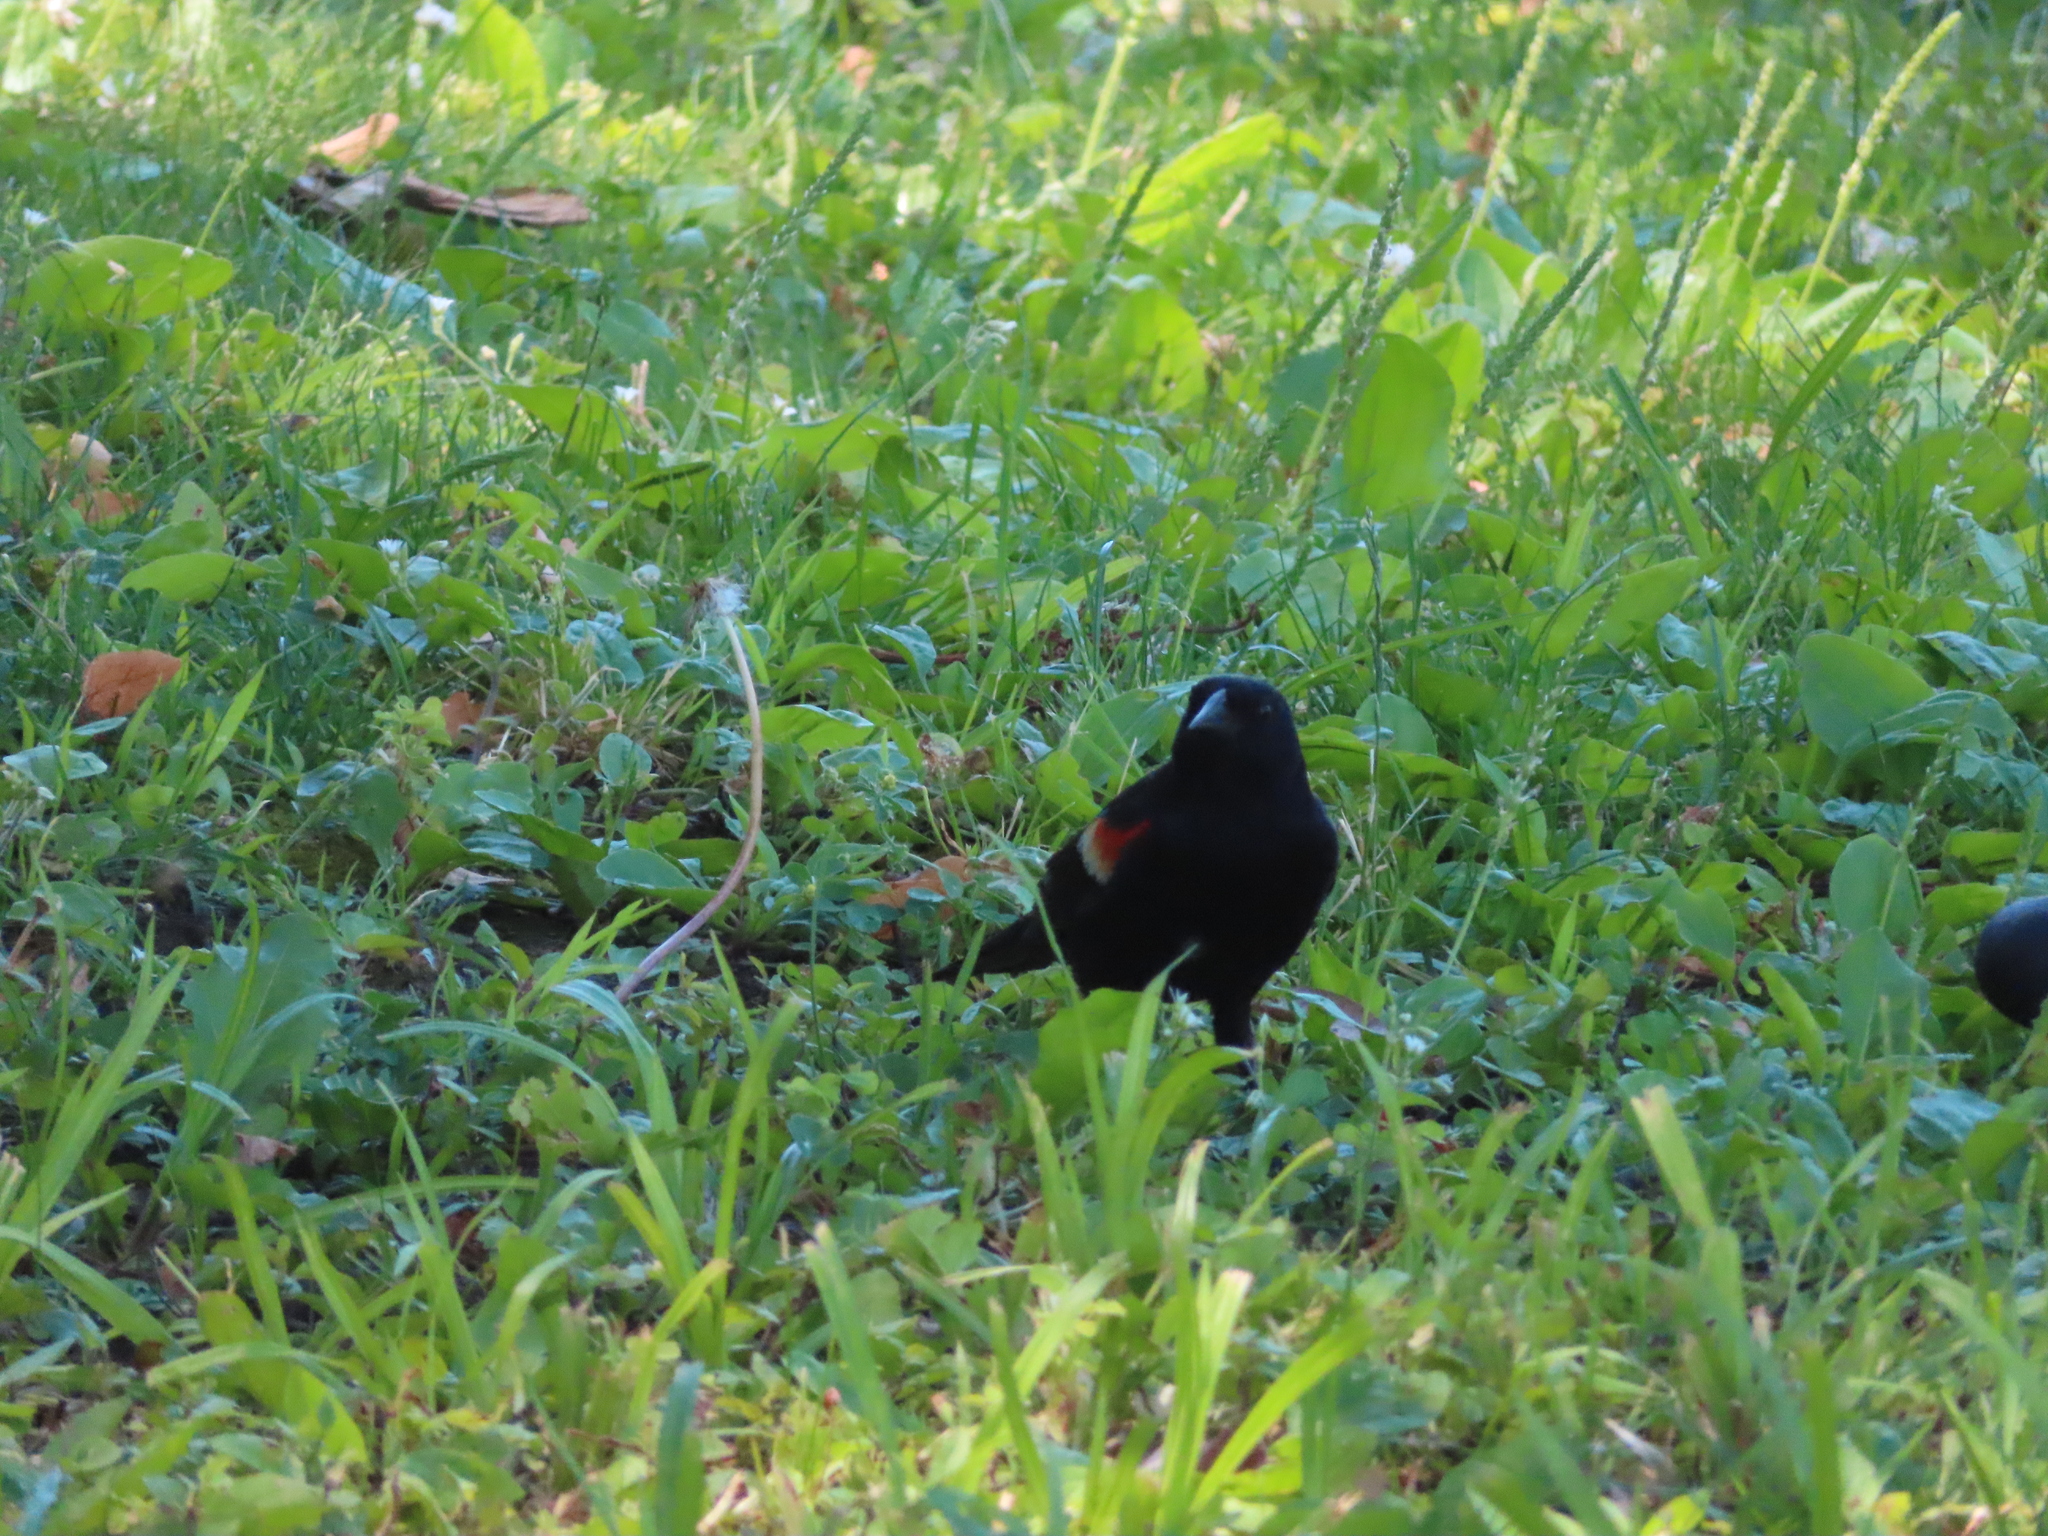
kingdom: Animalia
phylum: Chordata
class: Aves
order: Passeriformes
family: Icteridae
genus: Agelaius
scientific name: Agelaius phoeniceus
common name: Red-winged blackbird
